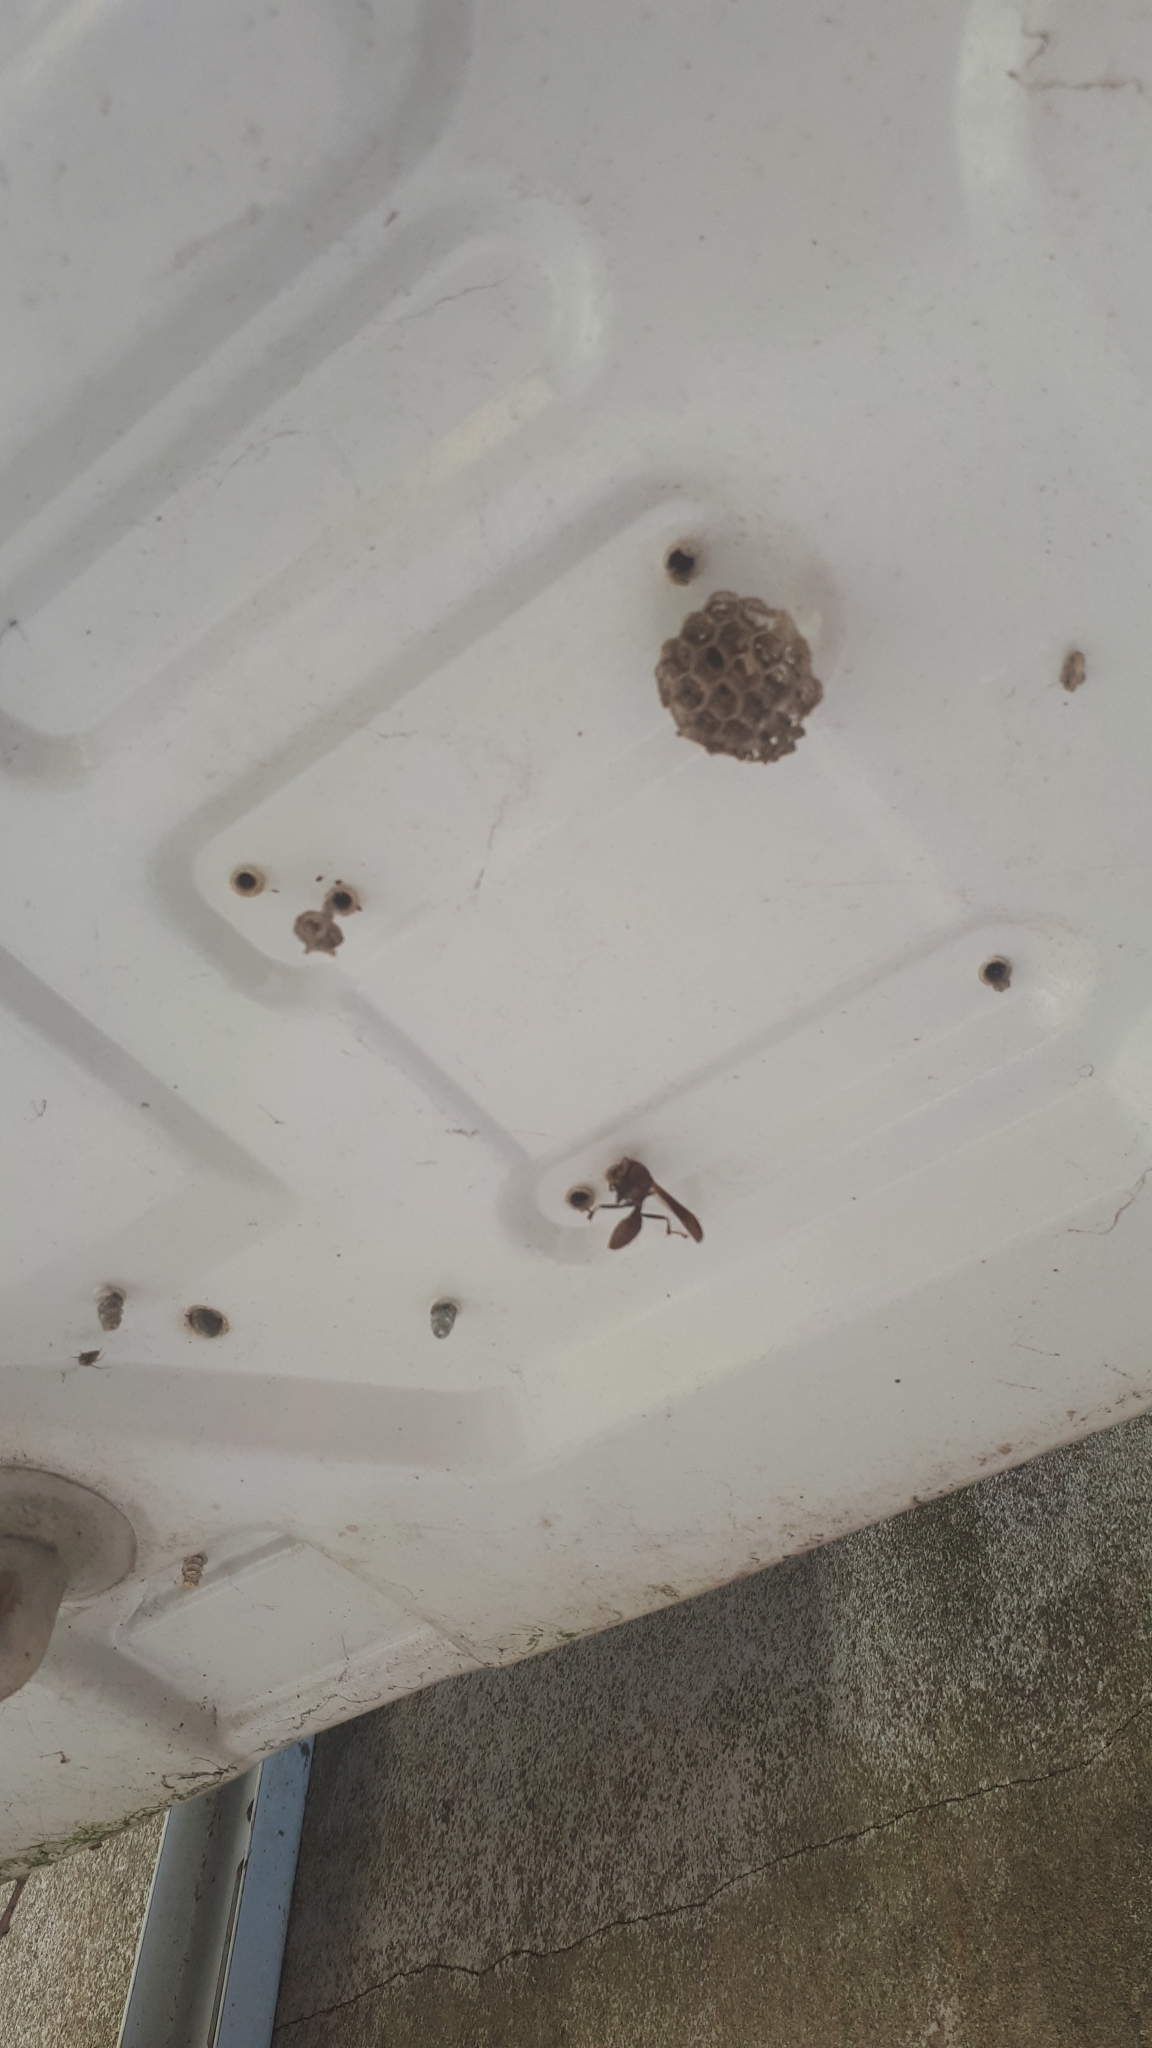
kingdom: Animalia
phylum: Arthropoda
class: Insecta
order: Hymenoptera
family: Pompilidae
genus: Aphanilopterus
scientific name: Aphanilopterus
